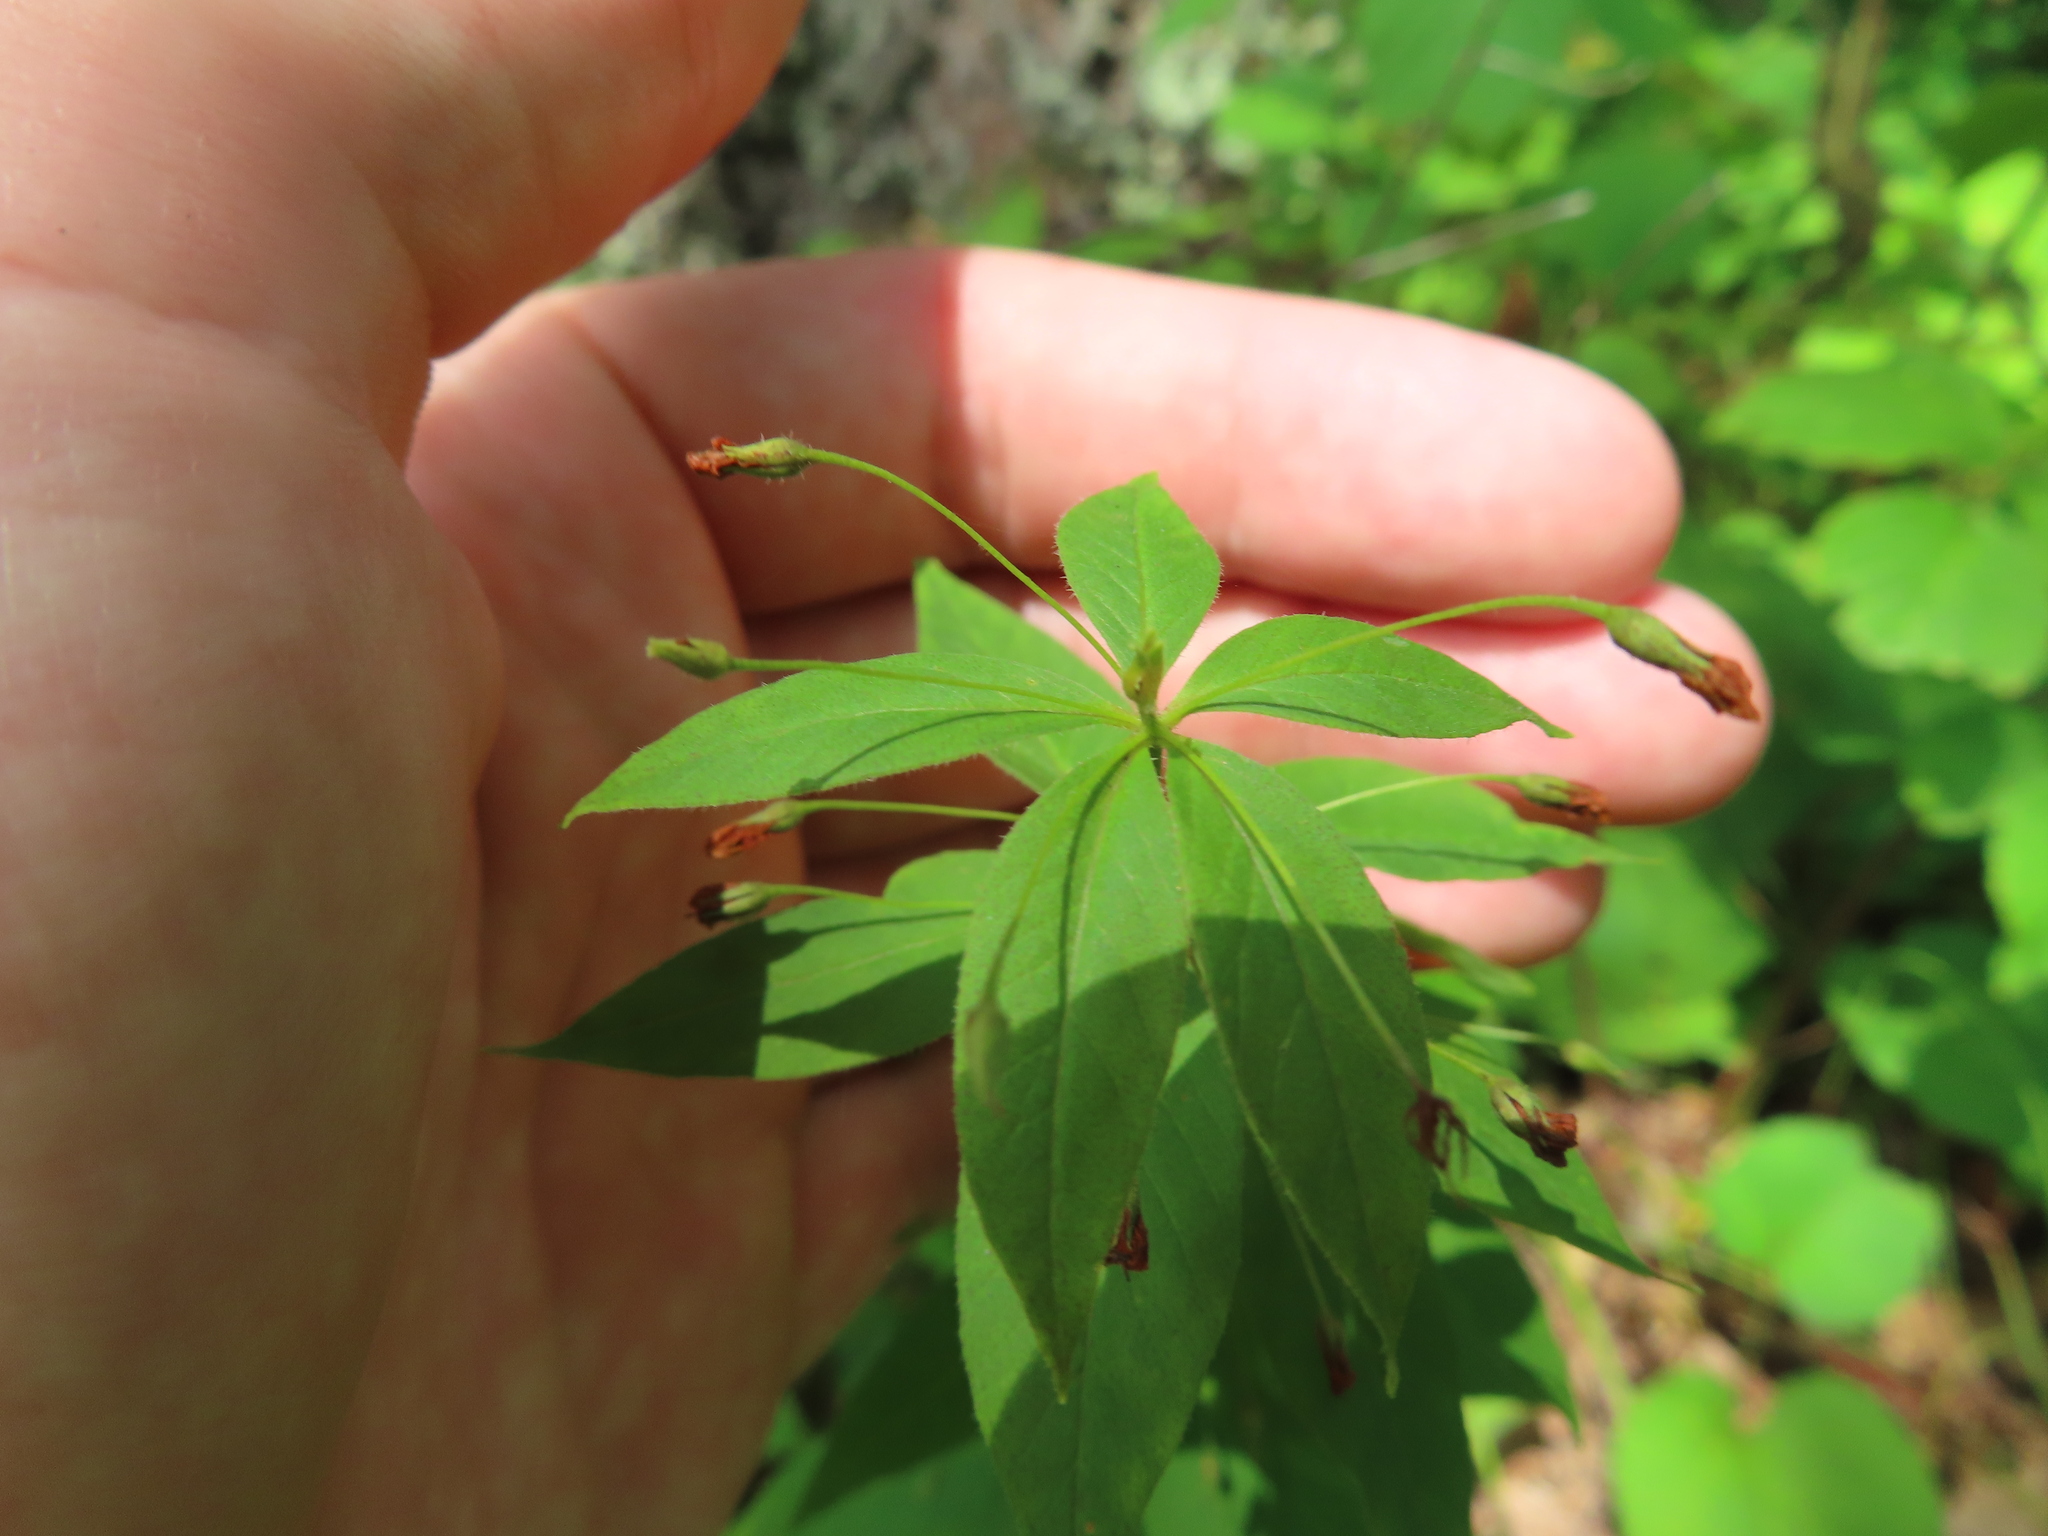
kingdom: Plantae
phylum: Tracheophyta
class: Magnoliopsida
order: Ericales
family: Primulaceae
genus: Lysimachia
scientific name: Lysimachia quadrifolia
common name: Whorled loosestrife
